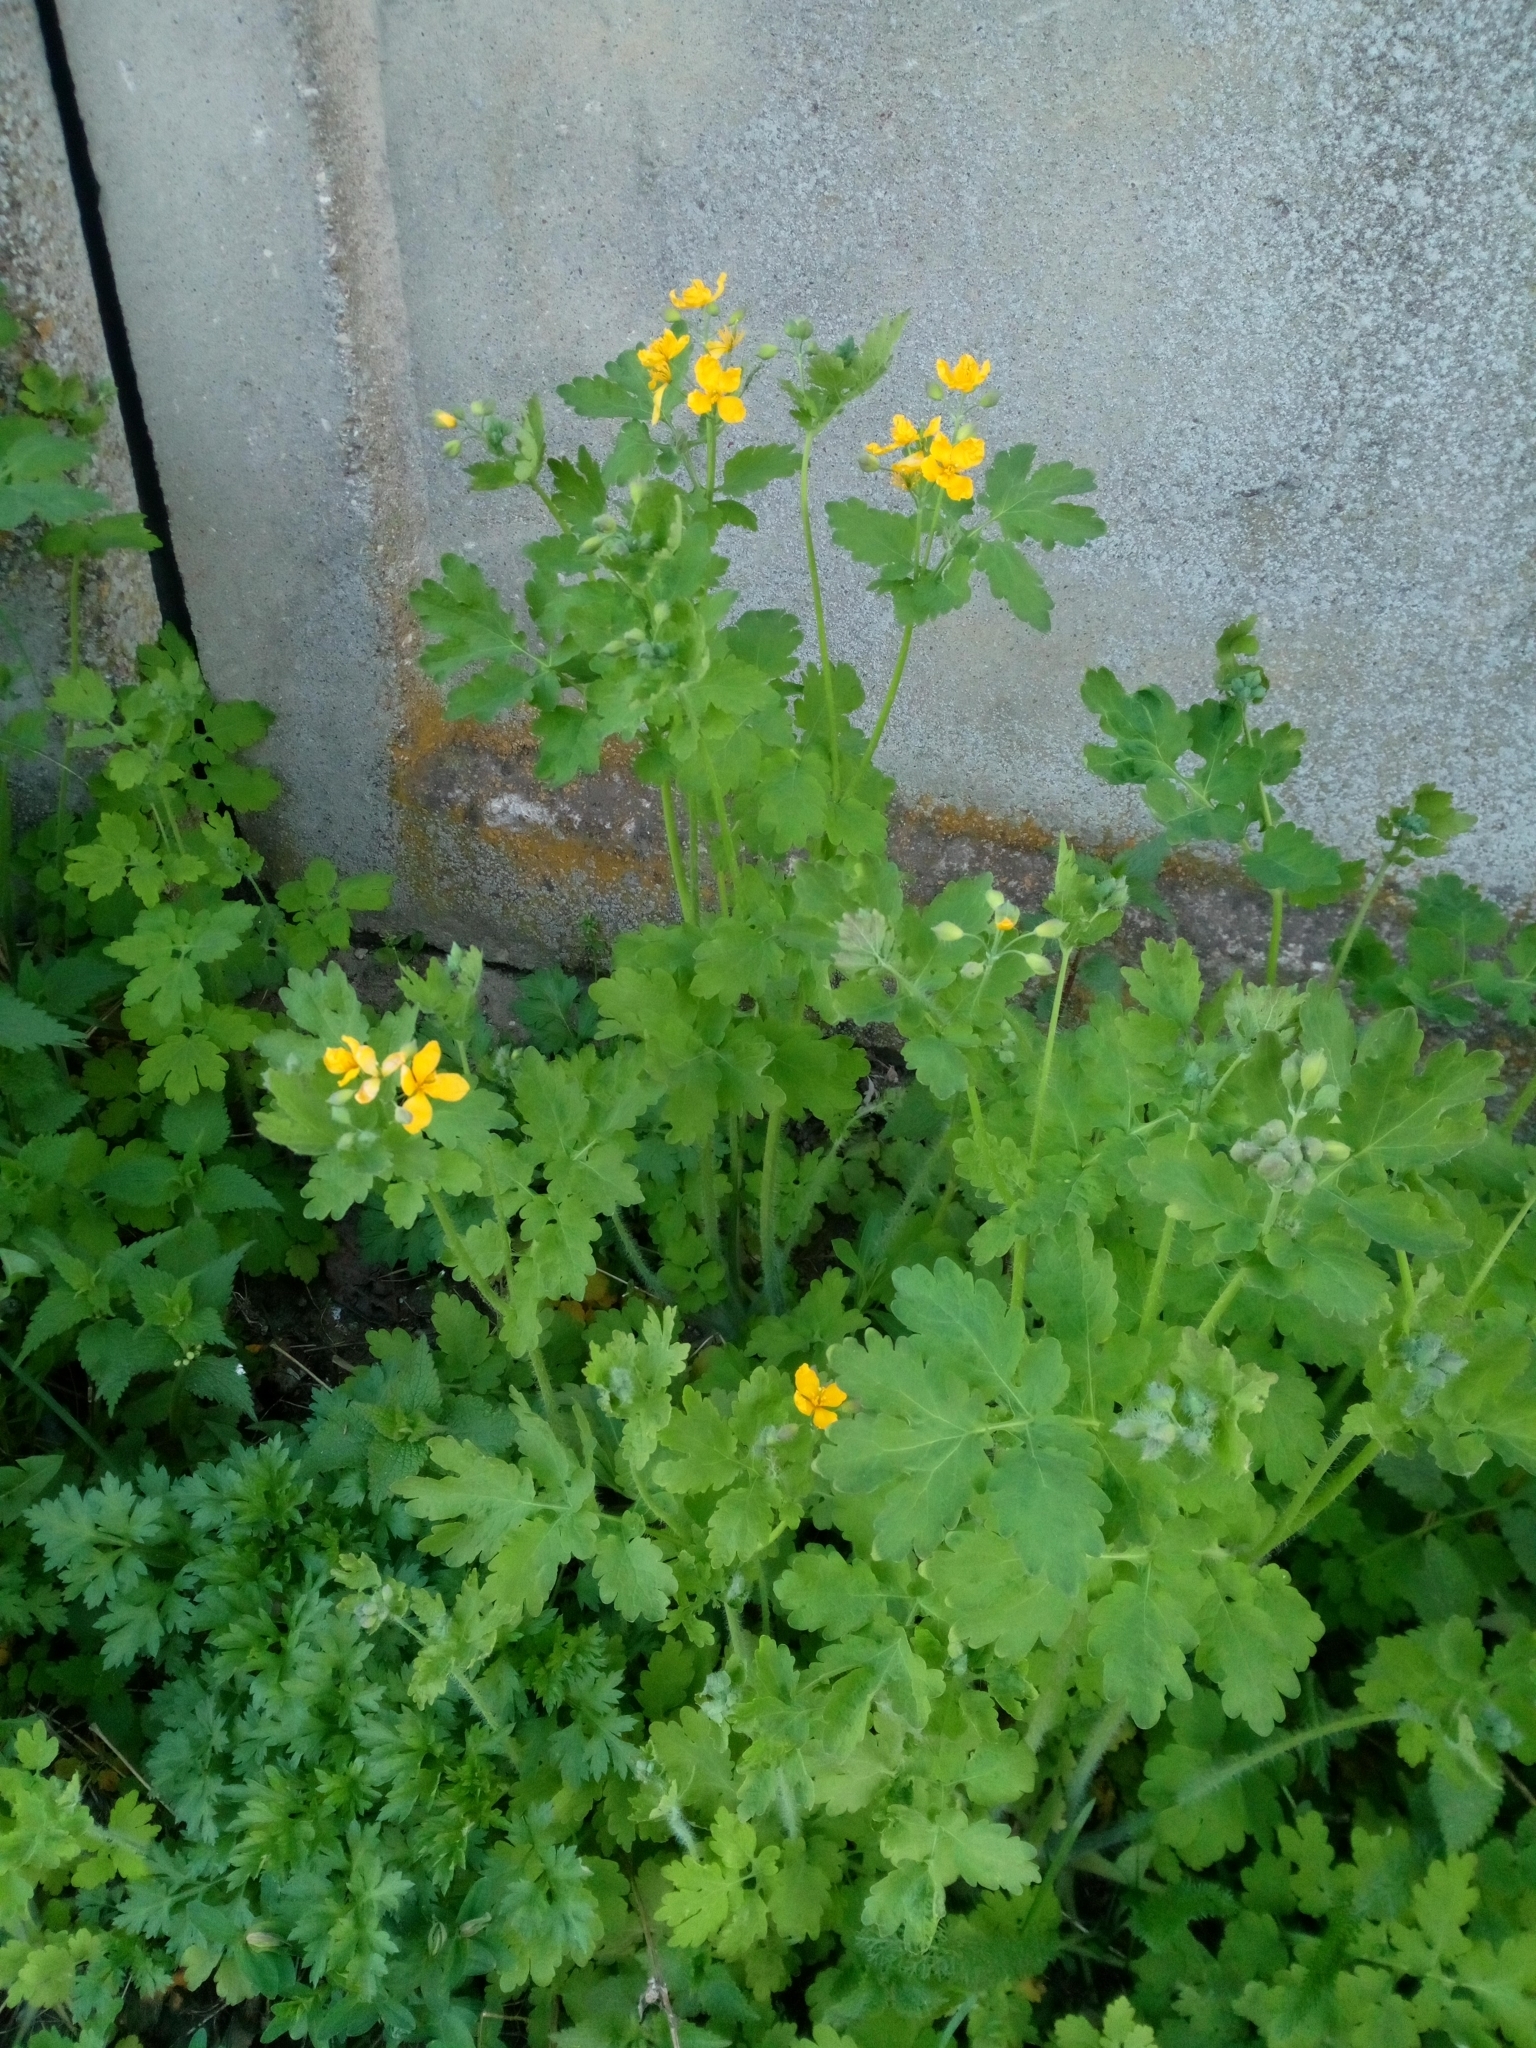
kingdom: Plantae
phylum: Tracheophyta
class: Magnoliopsida
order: Ranunculales
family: Papaveraceae
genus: Chelidonium
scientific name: Chelidonium majus
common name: Greater celandine
